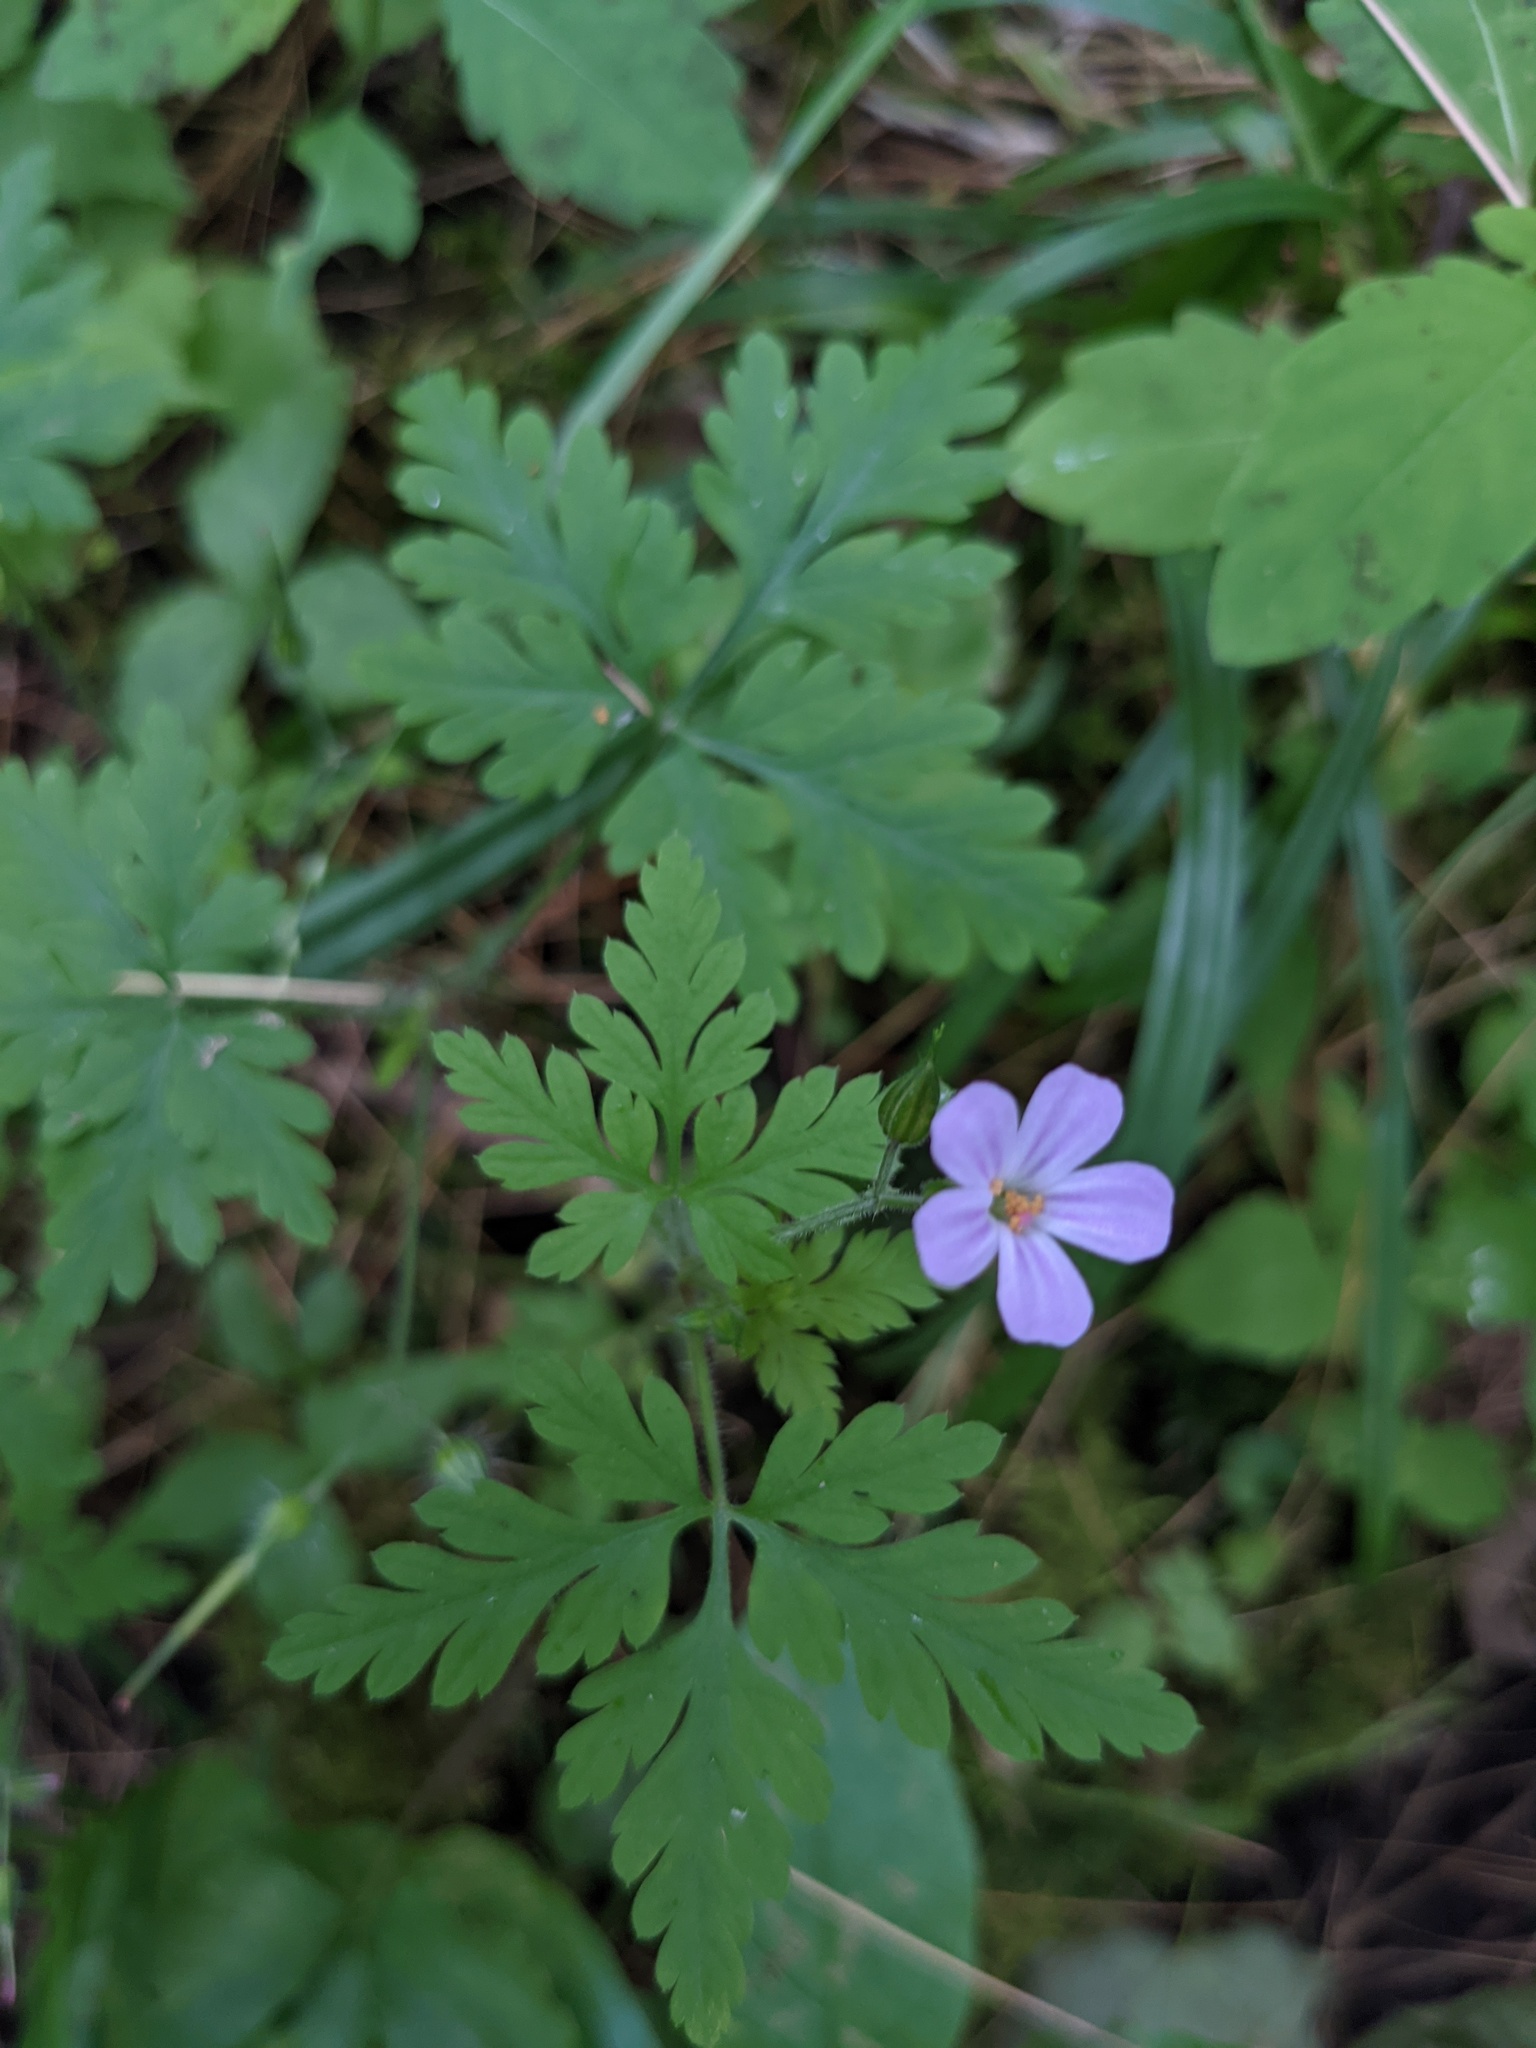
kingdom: Plantae
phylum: Tracheophyta
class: Magnoliopsida
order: Geraniales
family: Geraniaceae
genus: Geranium
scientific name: Geranium robertianum
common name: Herb-robert
